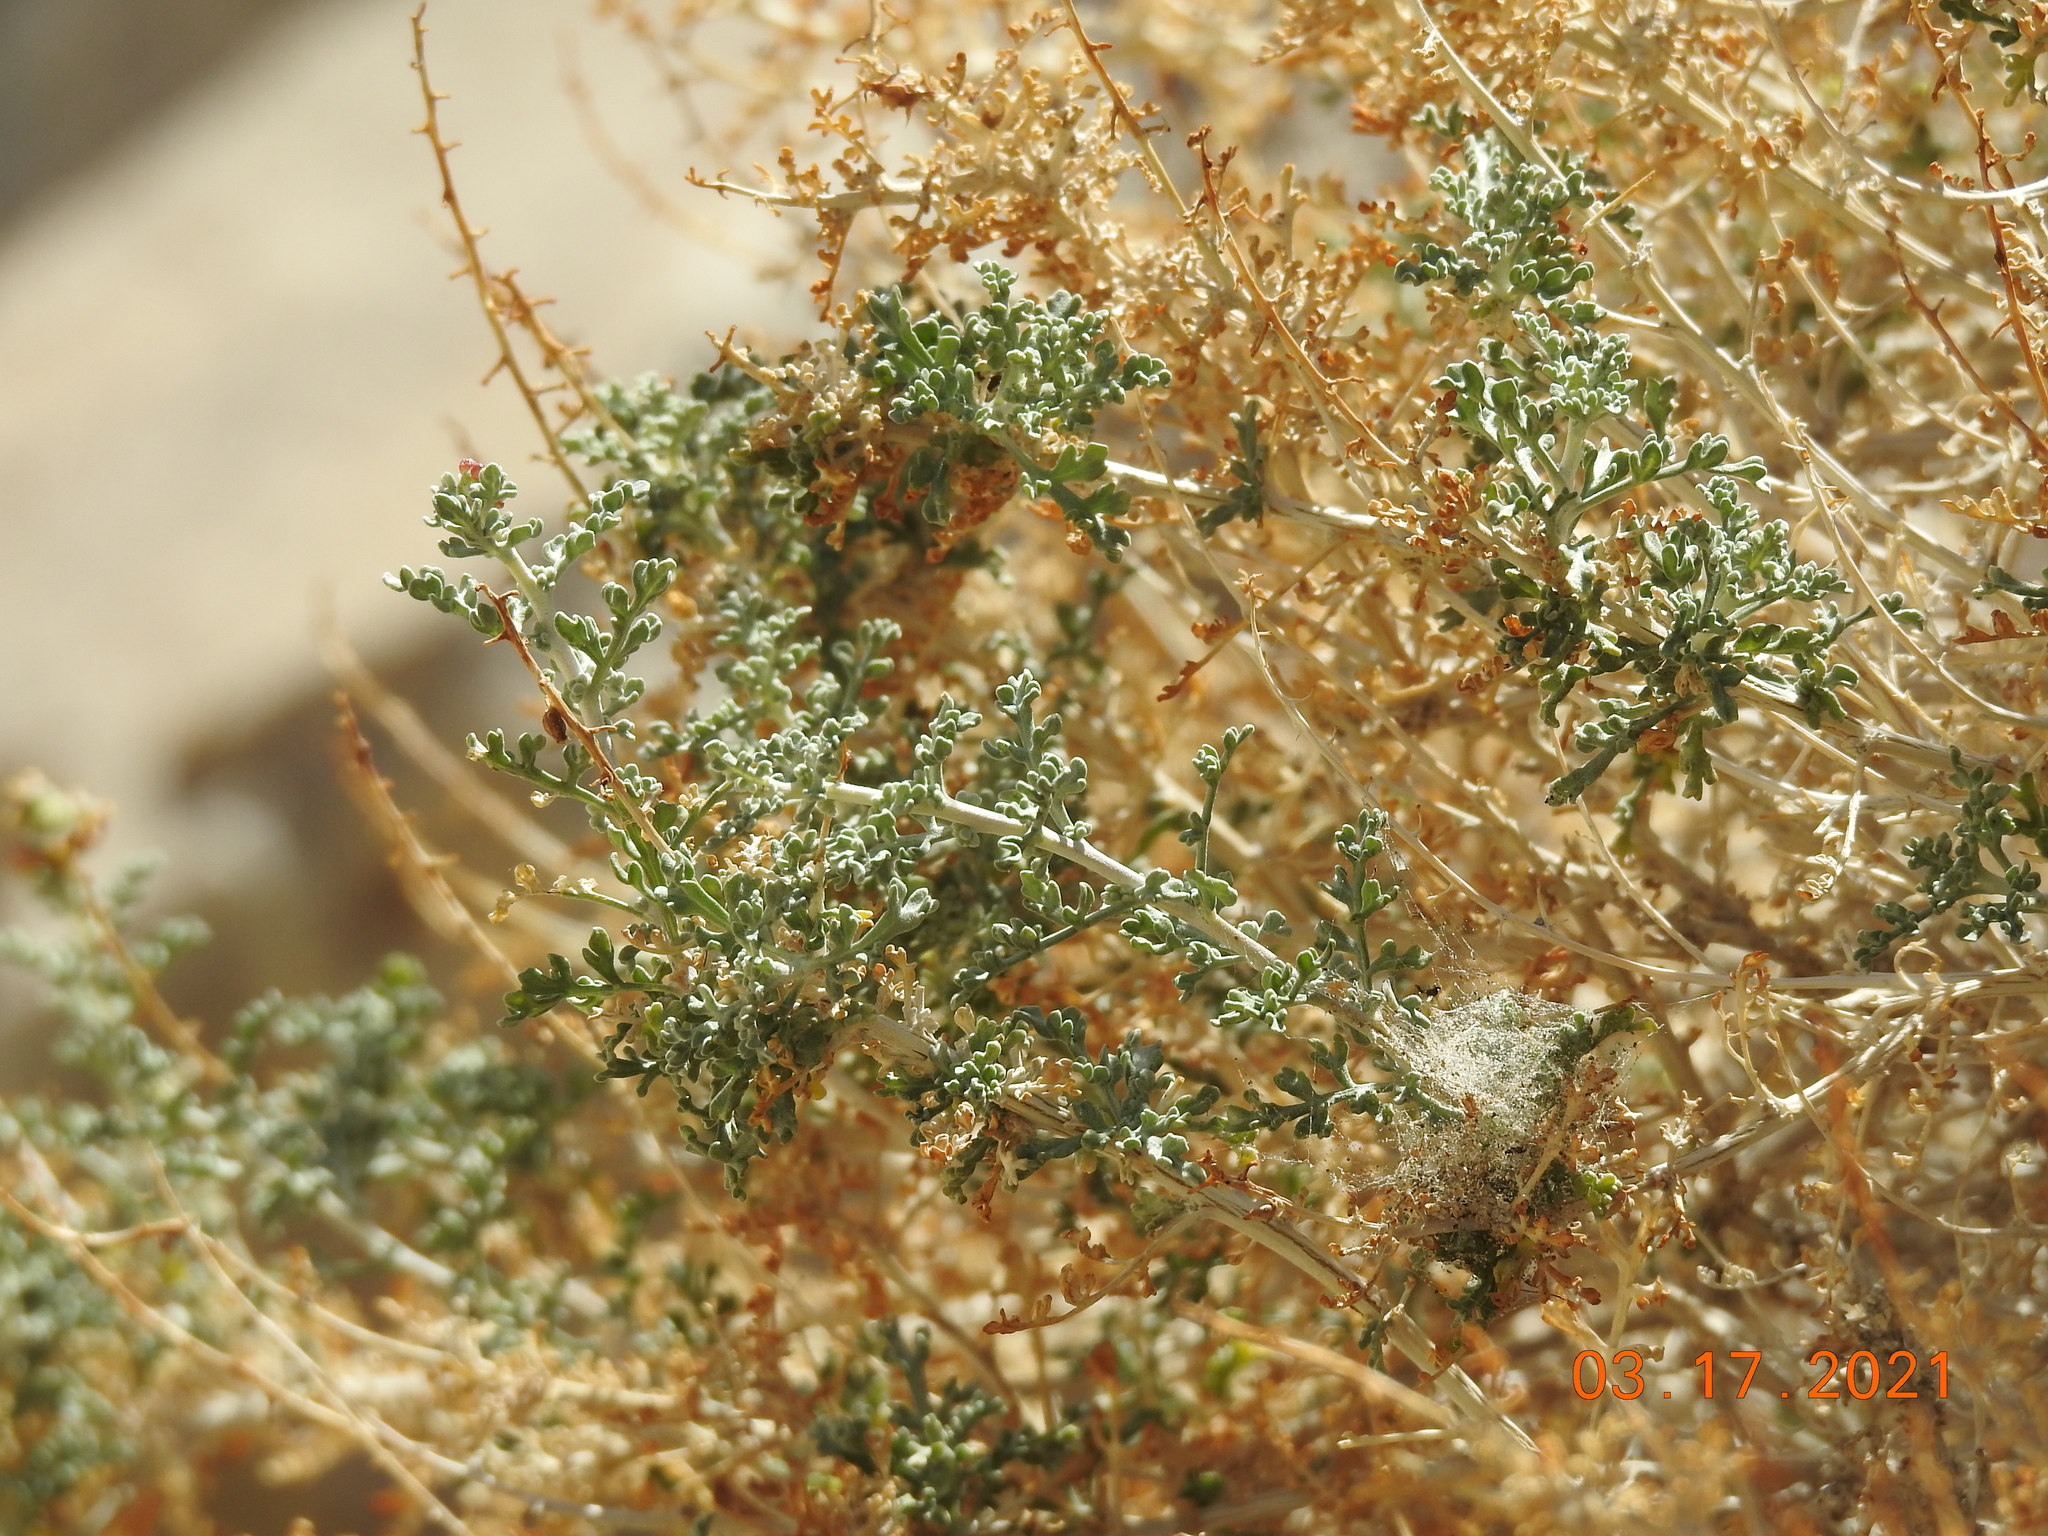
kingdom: Plantae
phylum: Tracheophyta
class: Magnoliopsida
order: Asterales
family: Asteraceae
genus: Ambrosia
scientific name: Ambrosia dumosa
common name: Bur-sage
